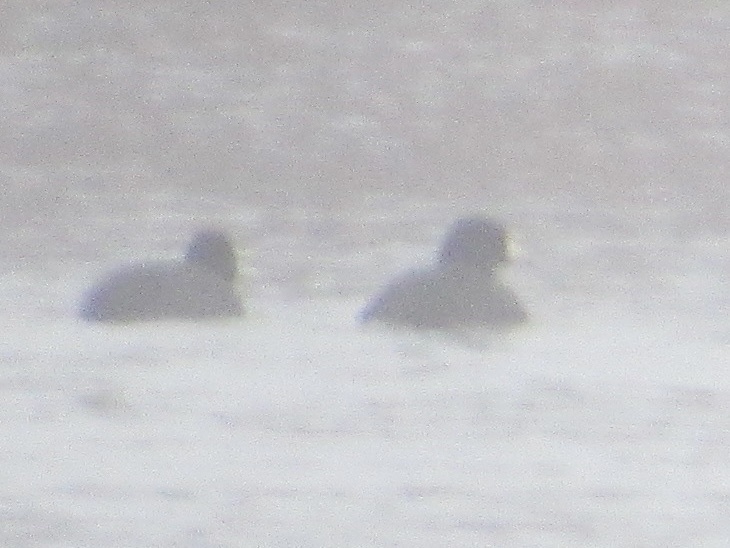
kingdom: Animalia
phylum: Chordata
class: Aves
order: Gruiformes
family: Rallidae
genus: Fulica
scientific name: Fulica americana
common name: American coot
